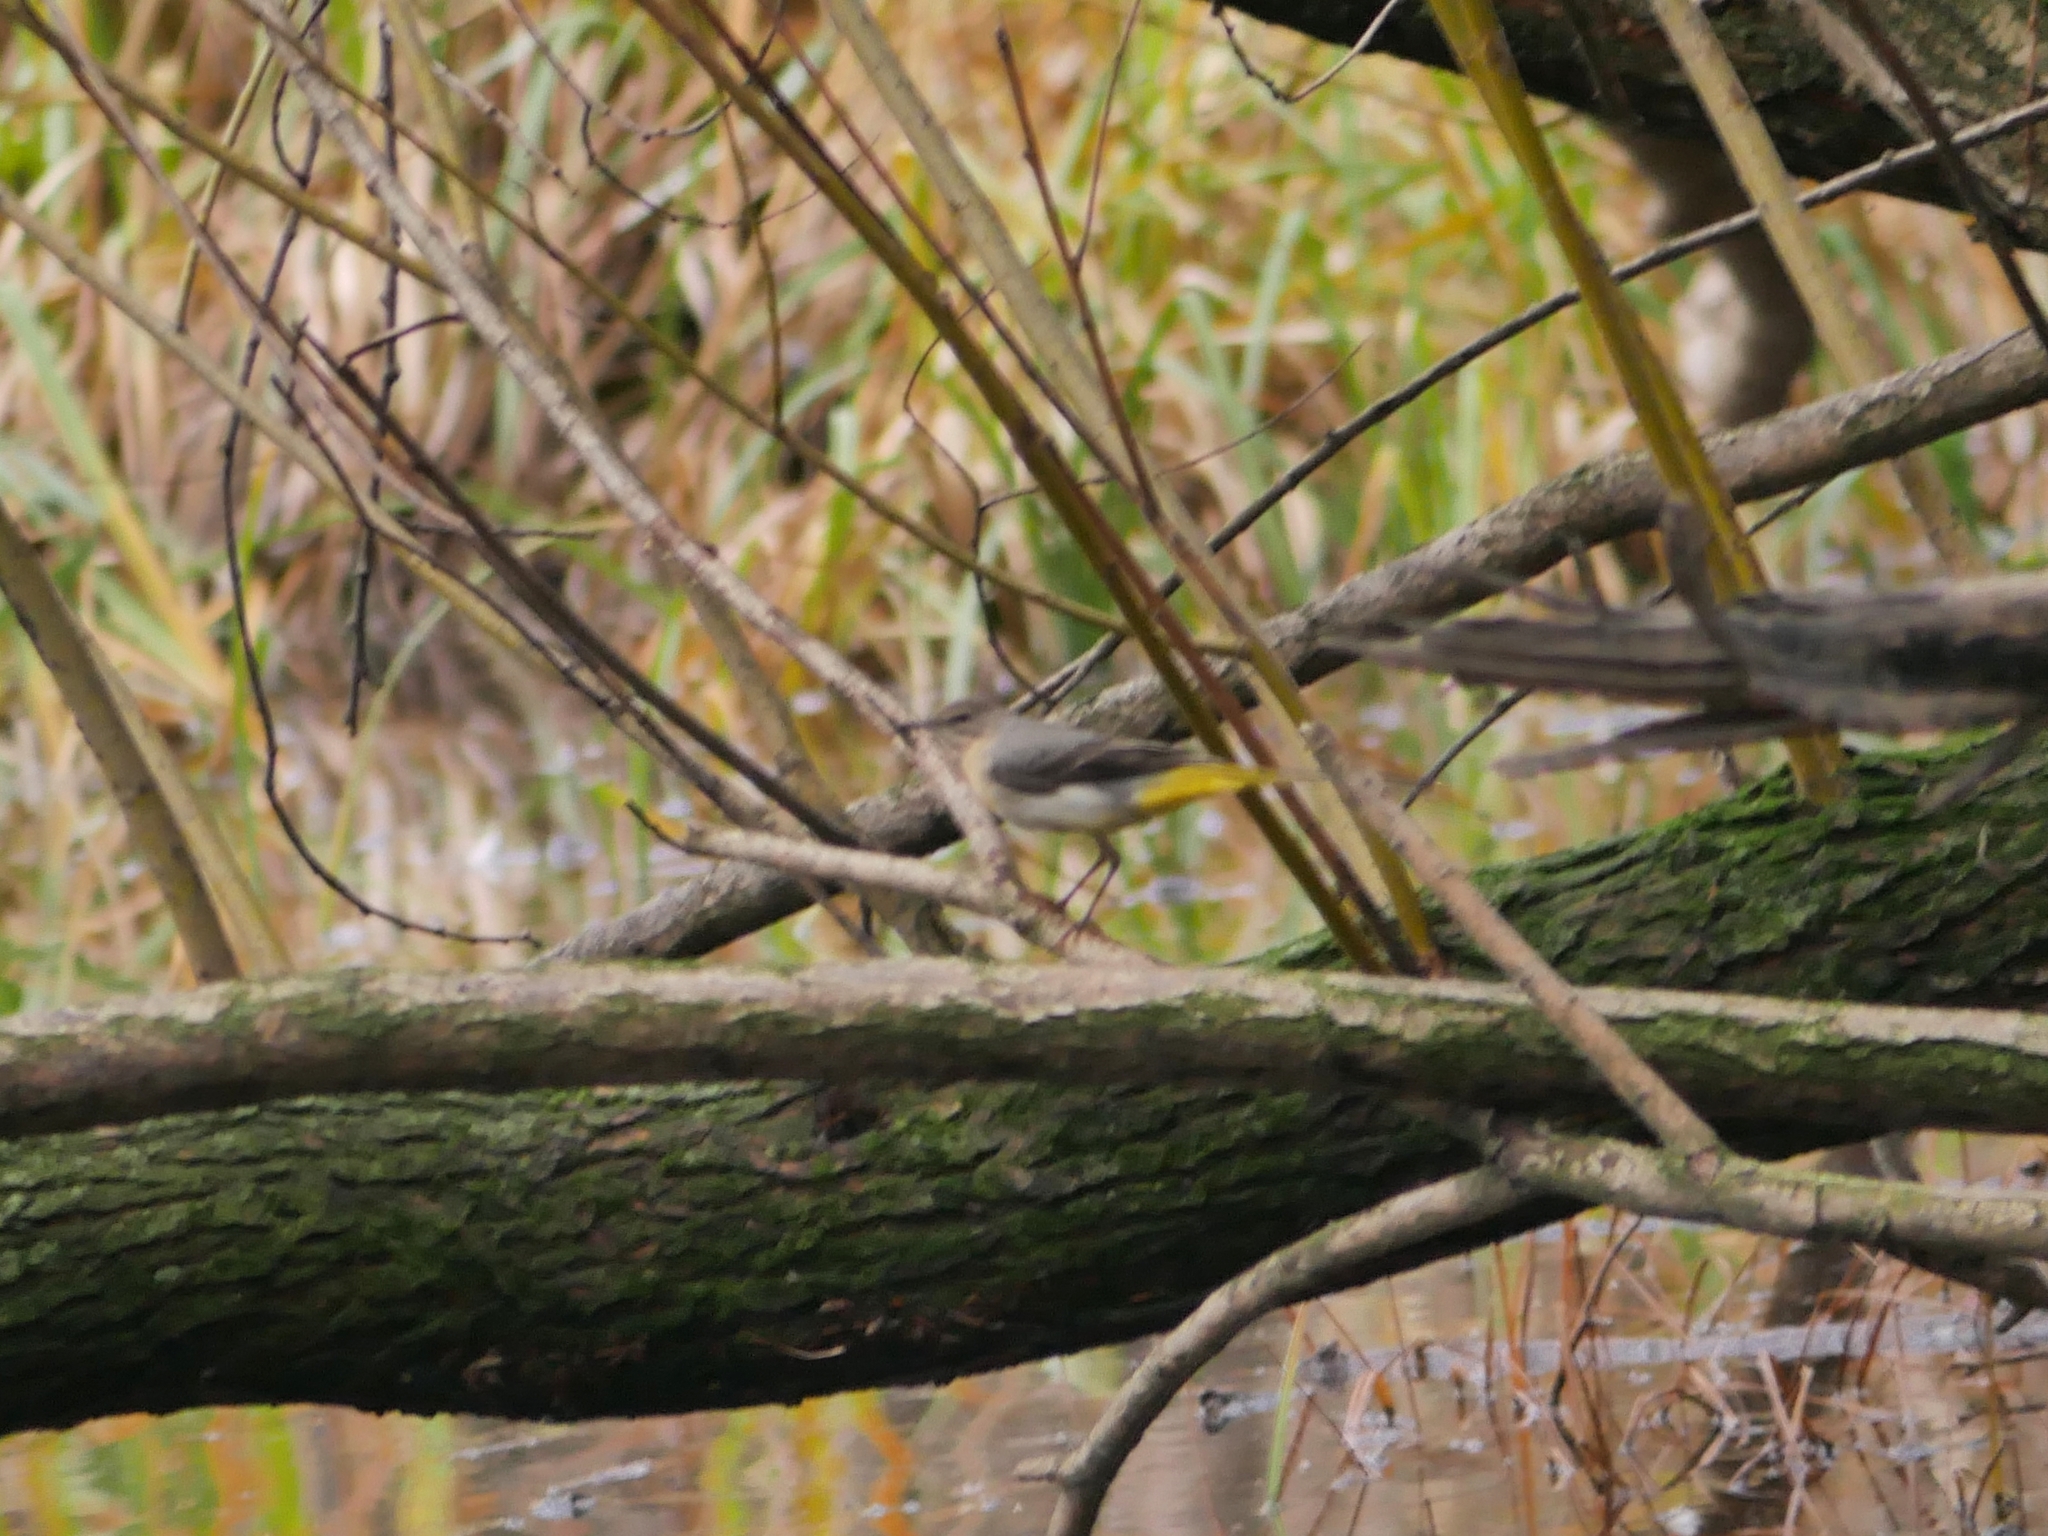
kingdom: Animalia
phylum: Chordata
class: Aves
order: Passeriformes
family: Motacillidae
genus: Motacilla
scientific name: Motacilla cinerea
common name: Grey wagtail
